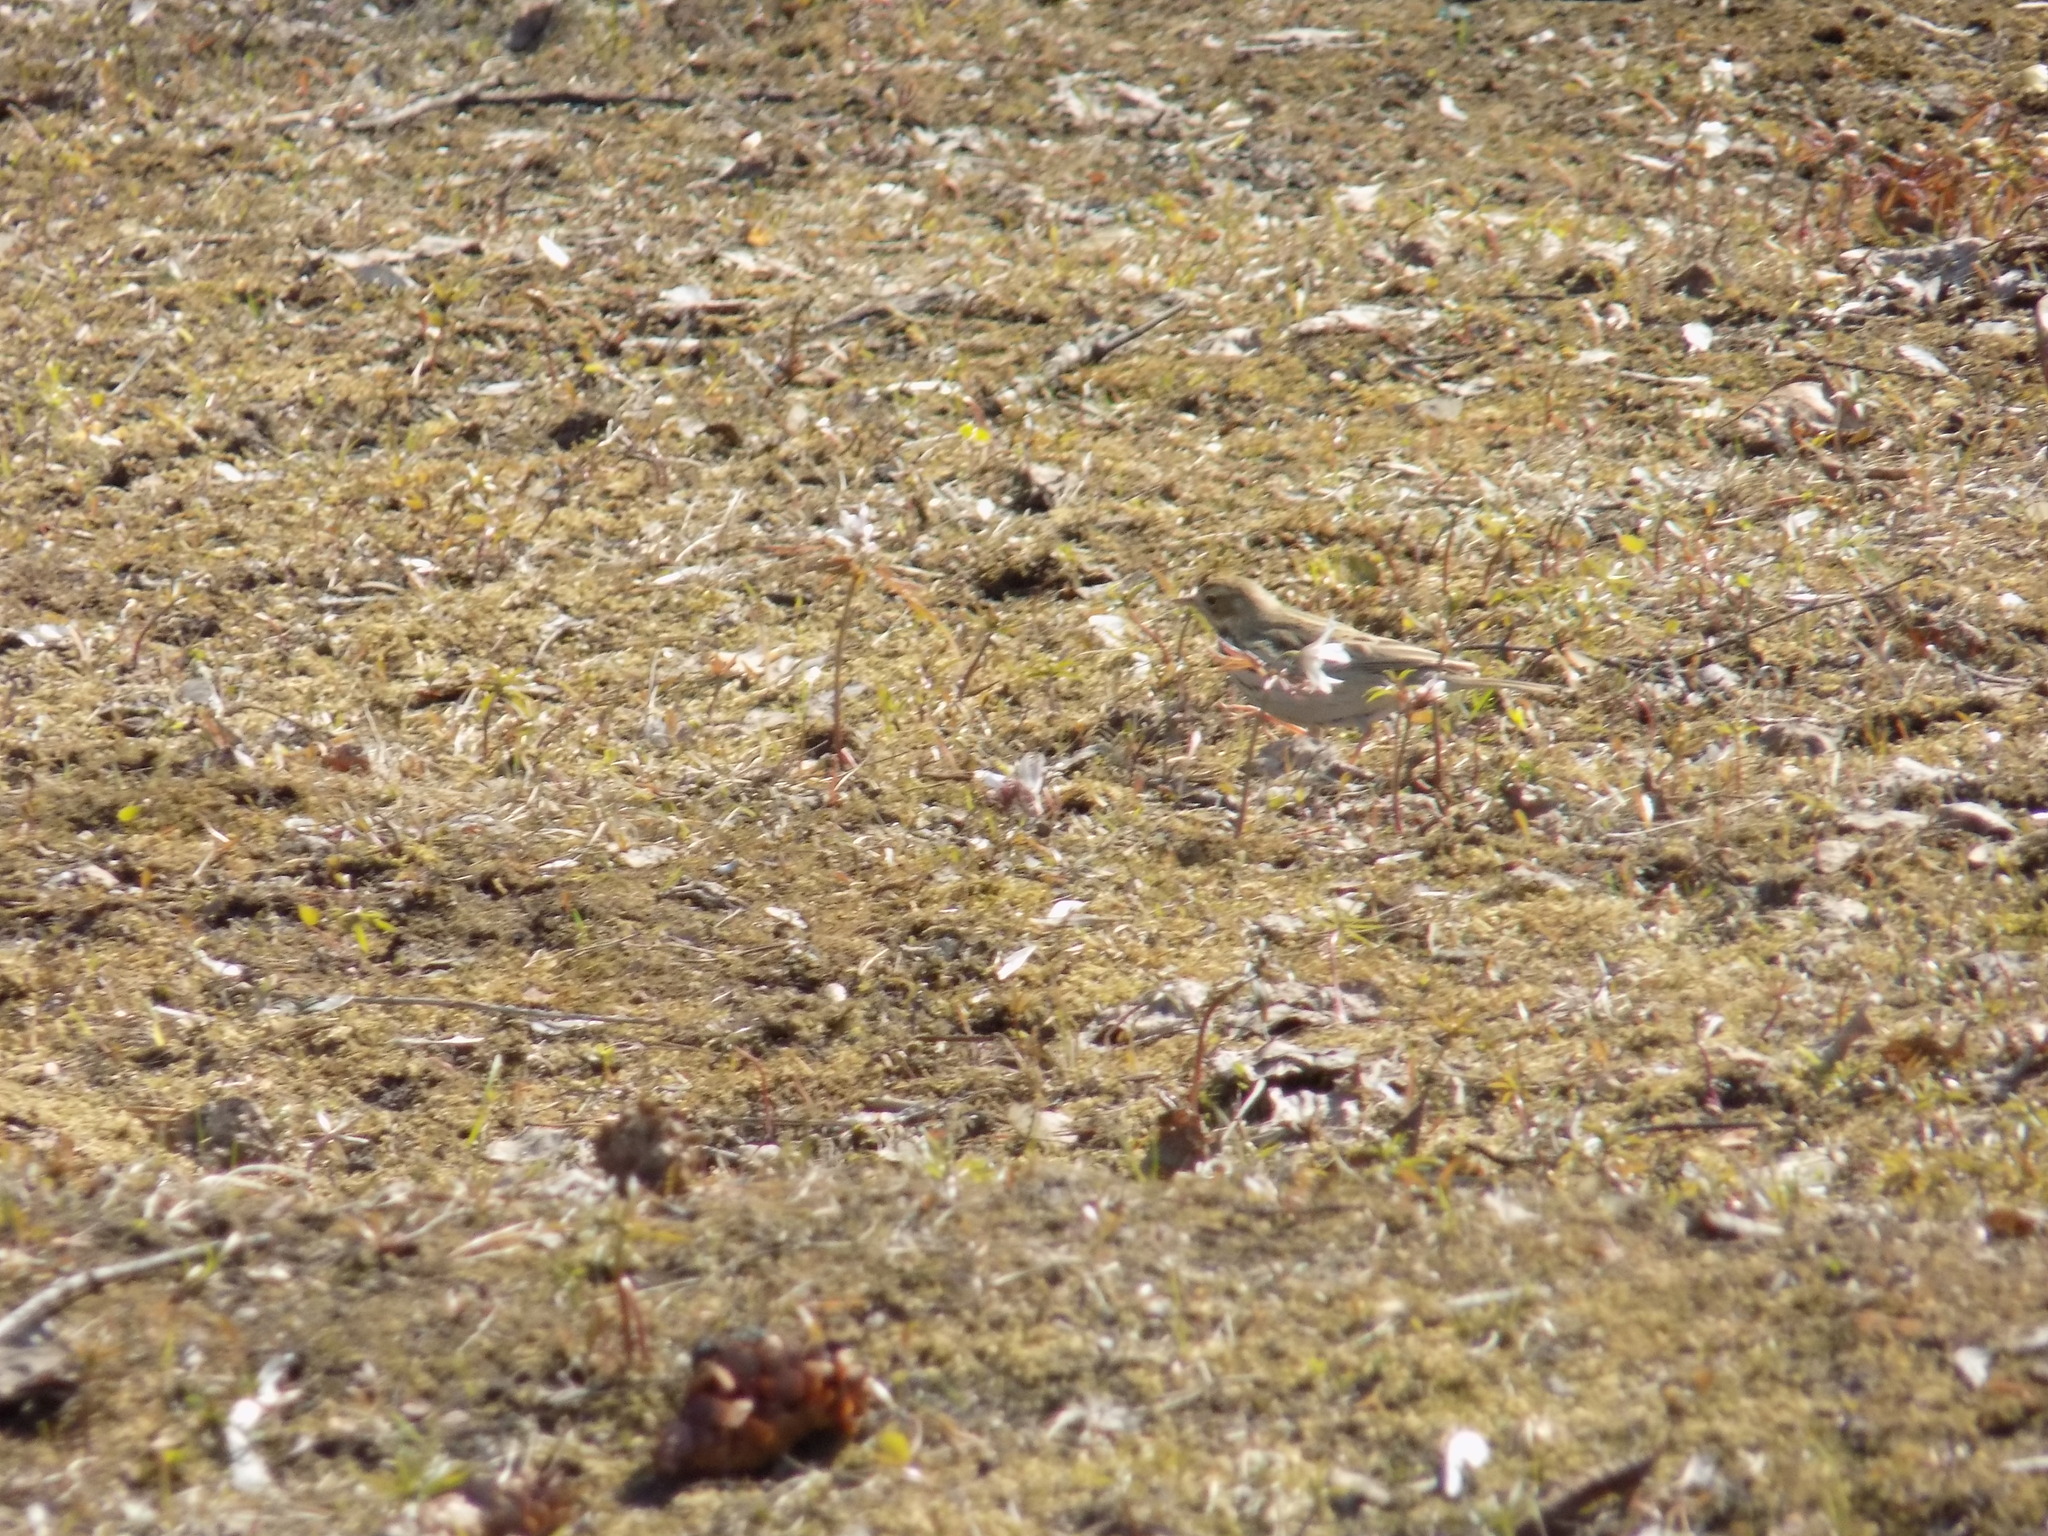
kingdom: Animalia
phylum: Chordata
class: Aves
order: Passeriformes
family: Motacillidae
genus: Anthus
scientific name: Anthus trivialis
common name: Tree pipit
